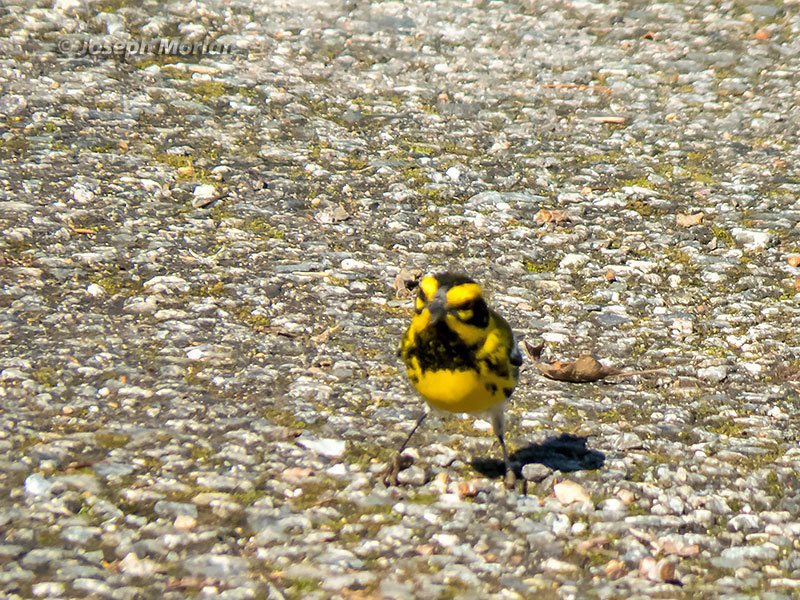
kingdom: Animalia
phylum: Chordata
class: Aves
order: Passeriformes
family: Parulidae
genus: Setophaga
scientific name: Setophaga townsendi
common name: Townsend's warbler
